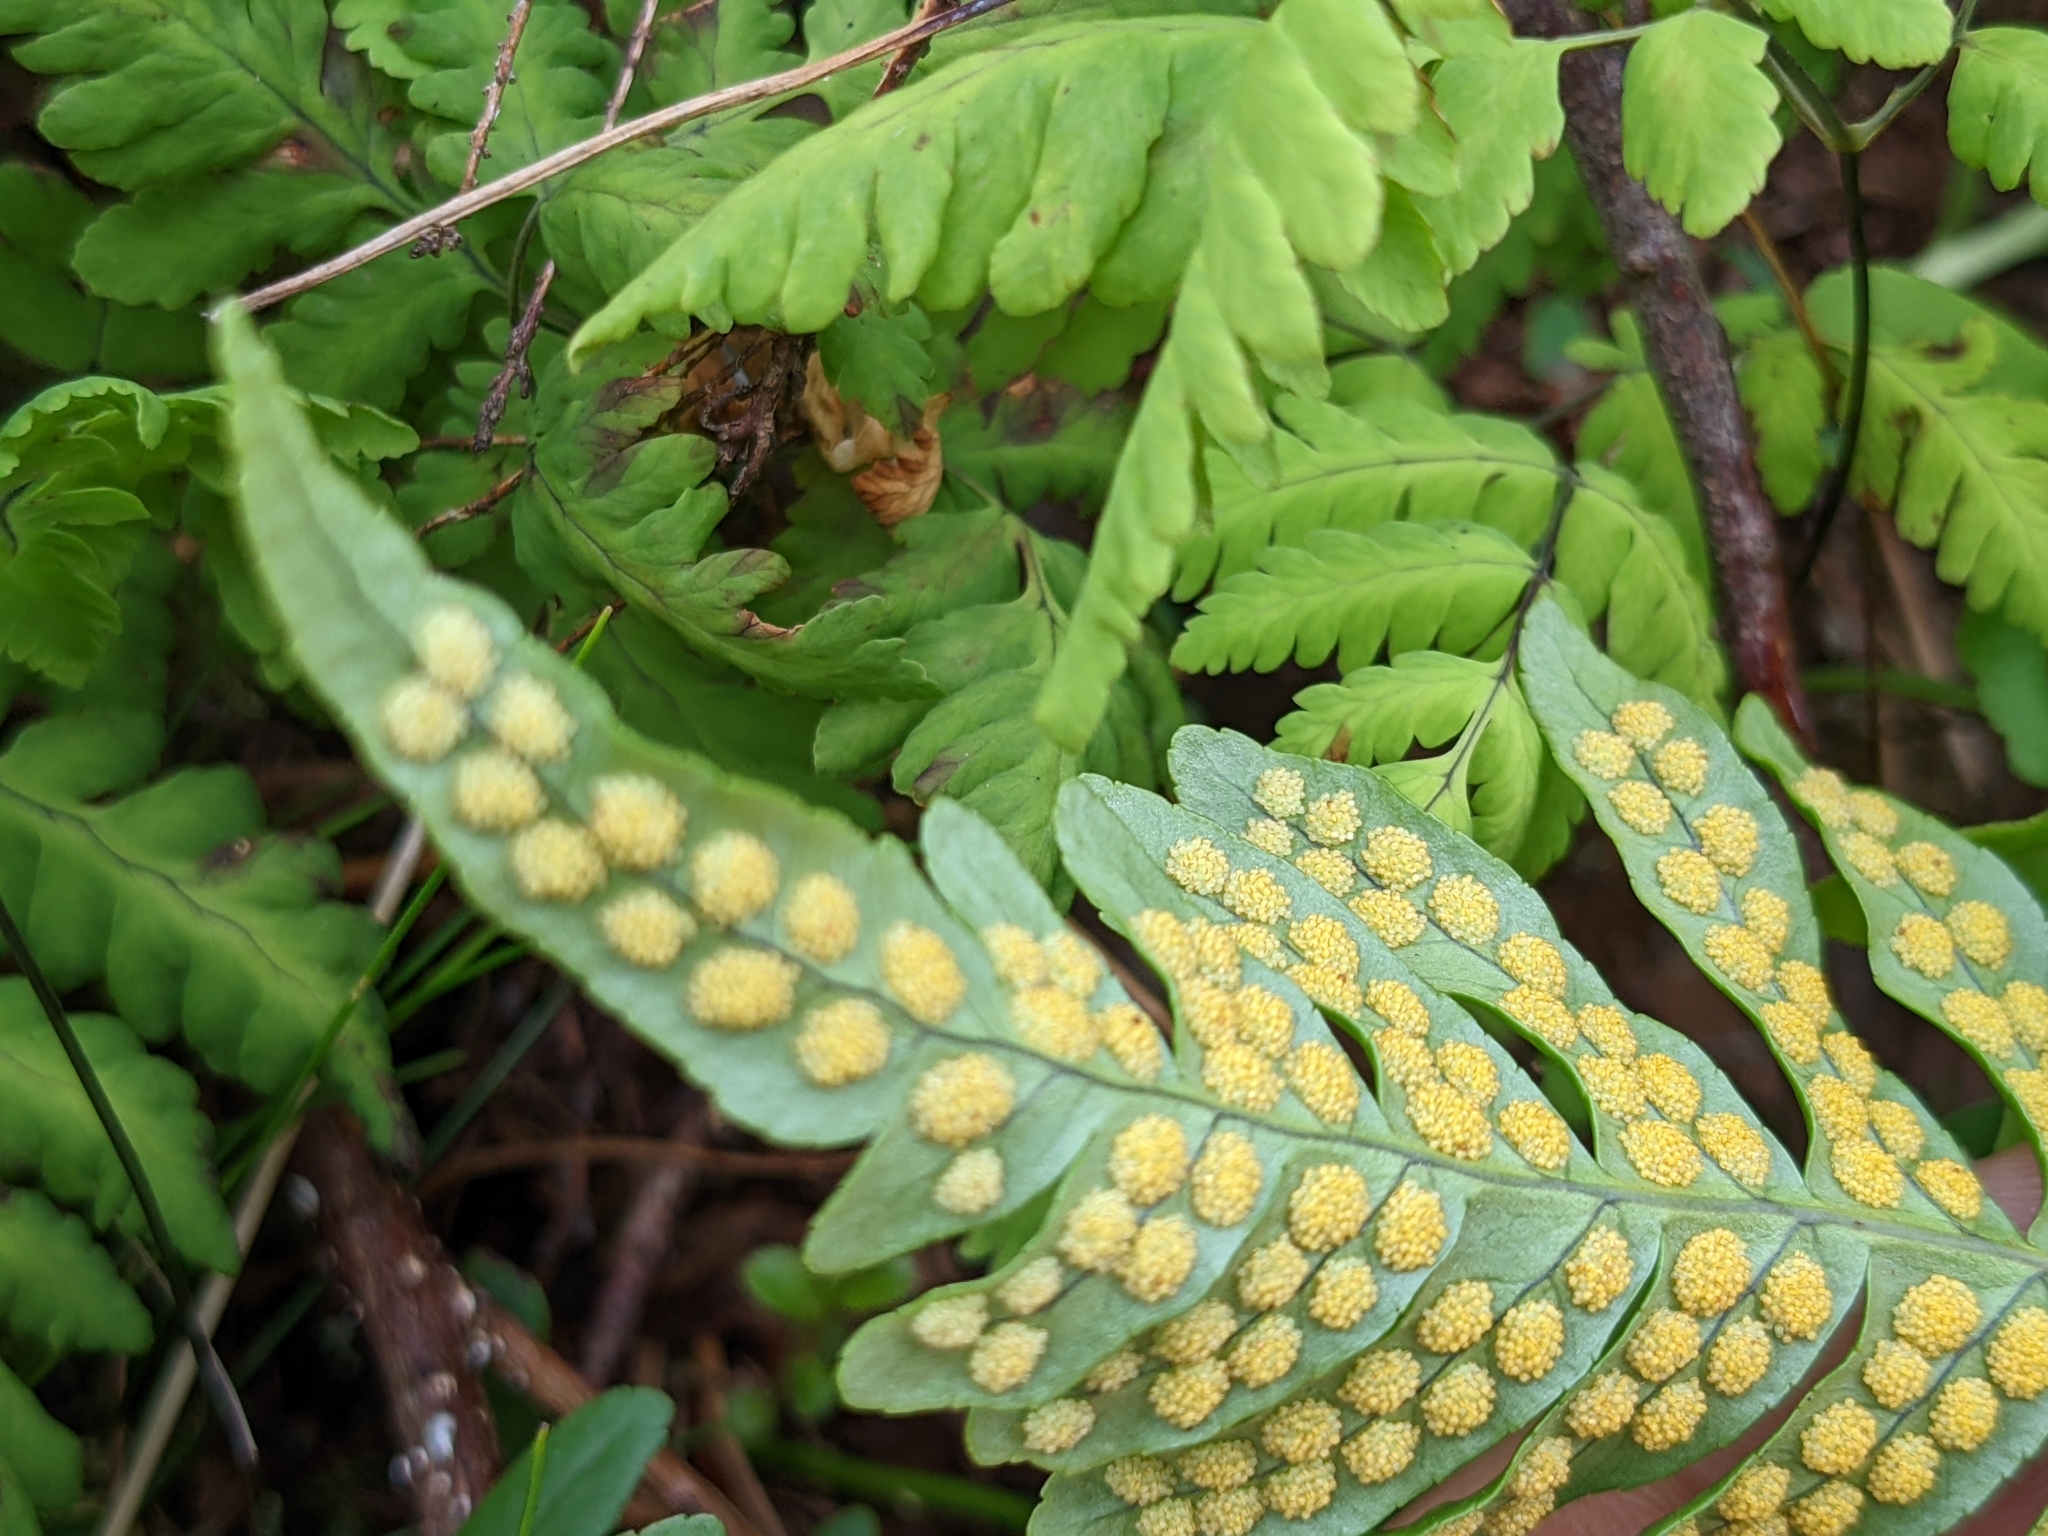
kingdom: Plantae
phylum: Tracheophyta
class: Polypodiopsida
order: Polypodiales
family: Polypodiaceae
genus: Polypodium
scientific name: Polypodium vulgare
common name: Common polypody
